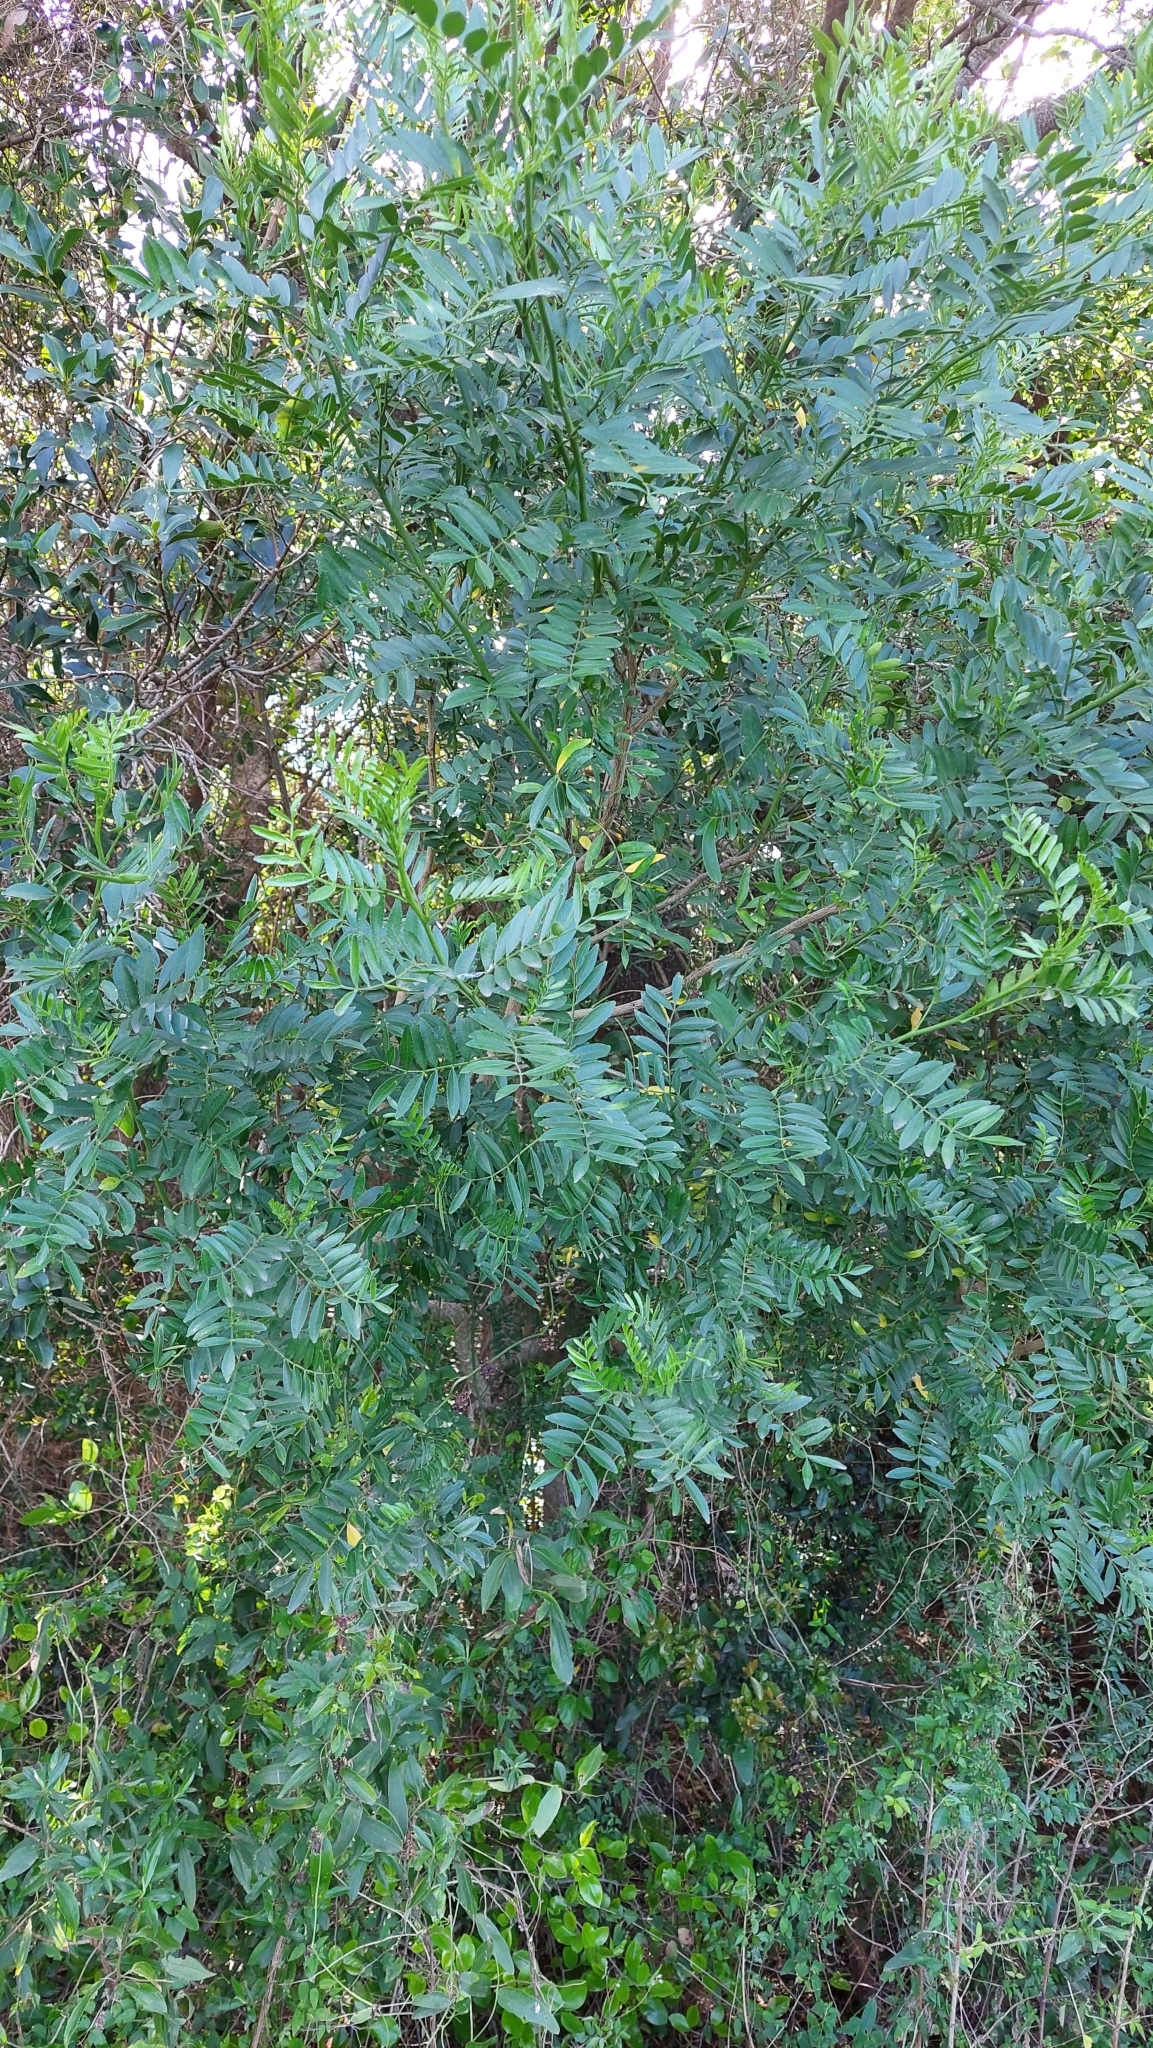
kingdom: Plantae
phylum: Tracheophyta
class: Magnoliopsida
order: Sapindales
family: Rutaceae
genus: Zanthoxylum
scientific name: Zanthoxylum fagara
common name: Lime prickly-ash
